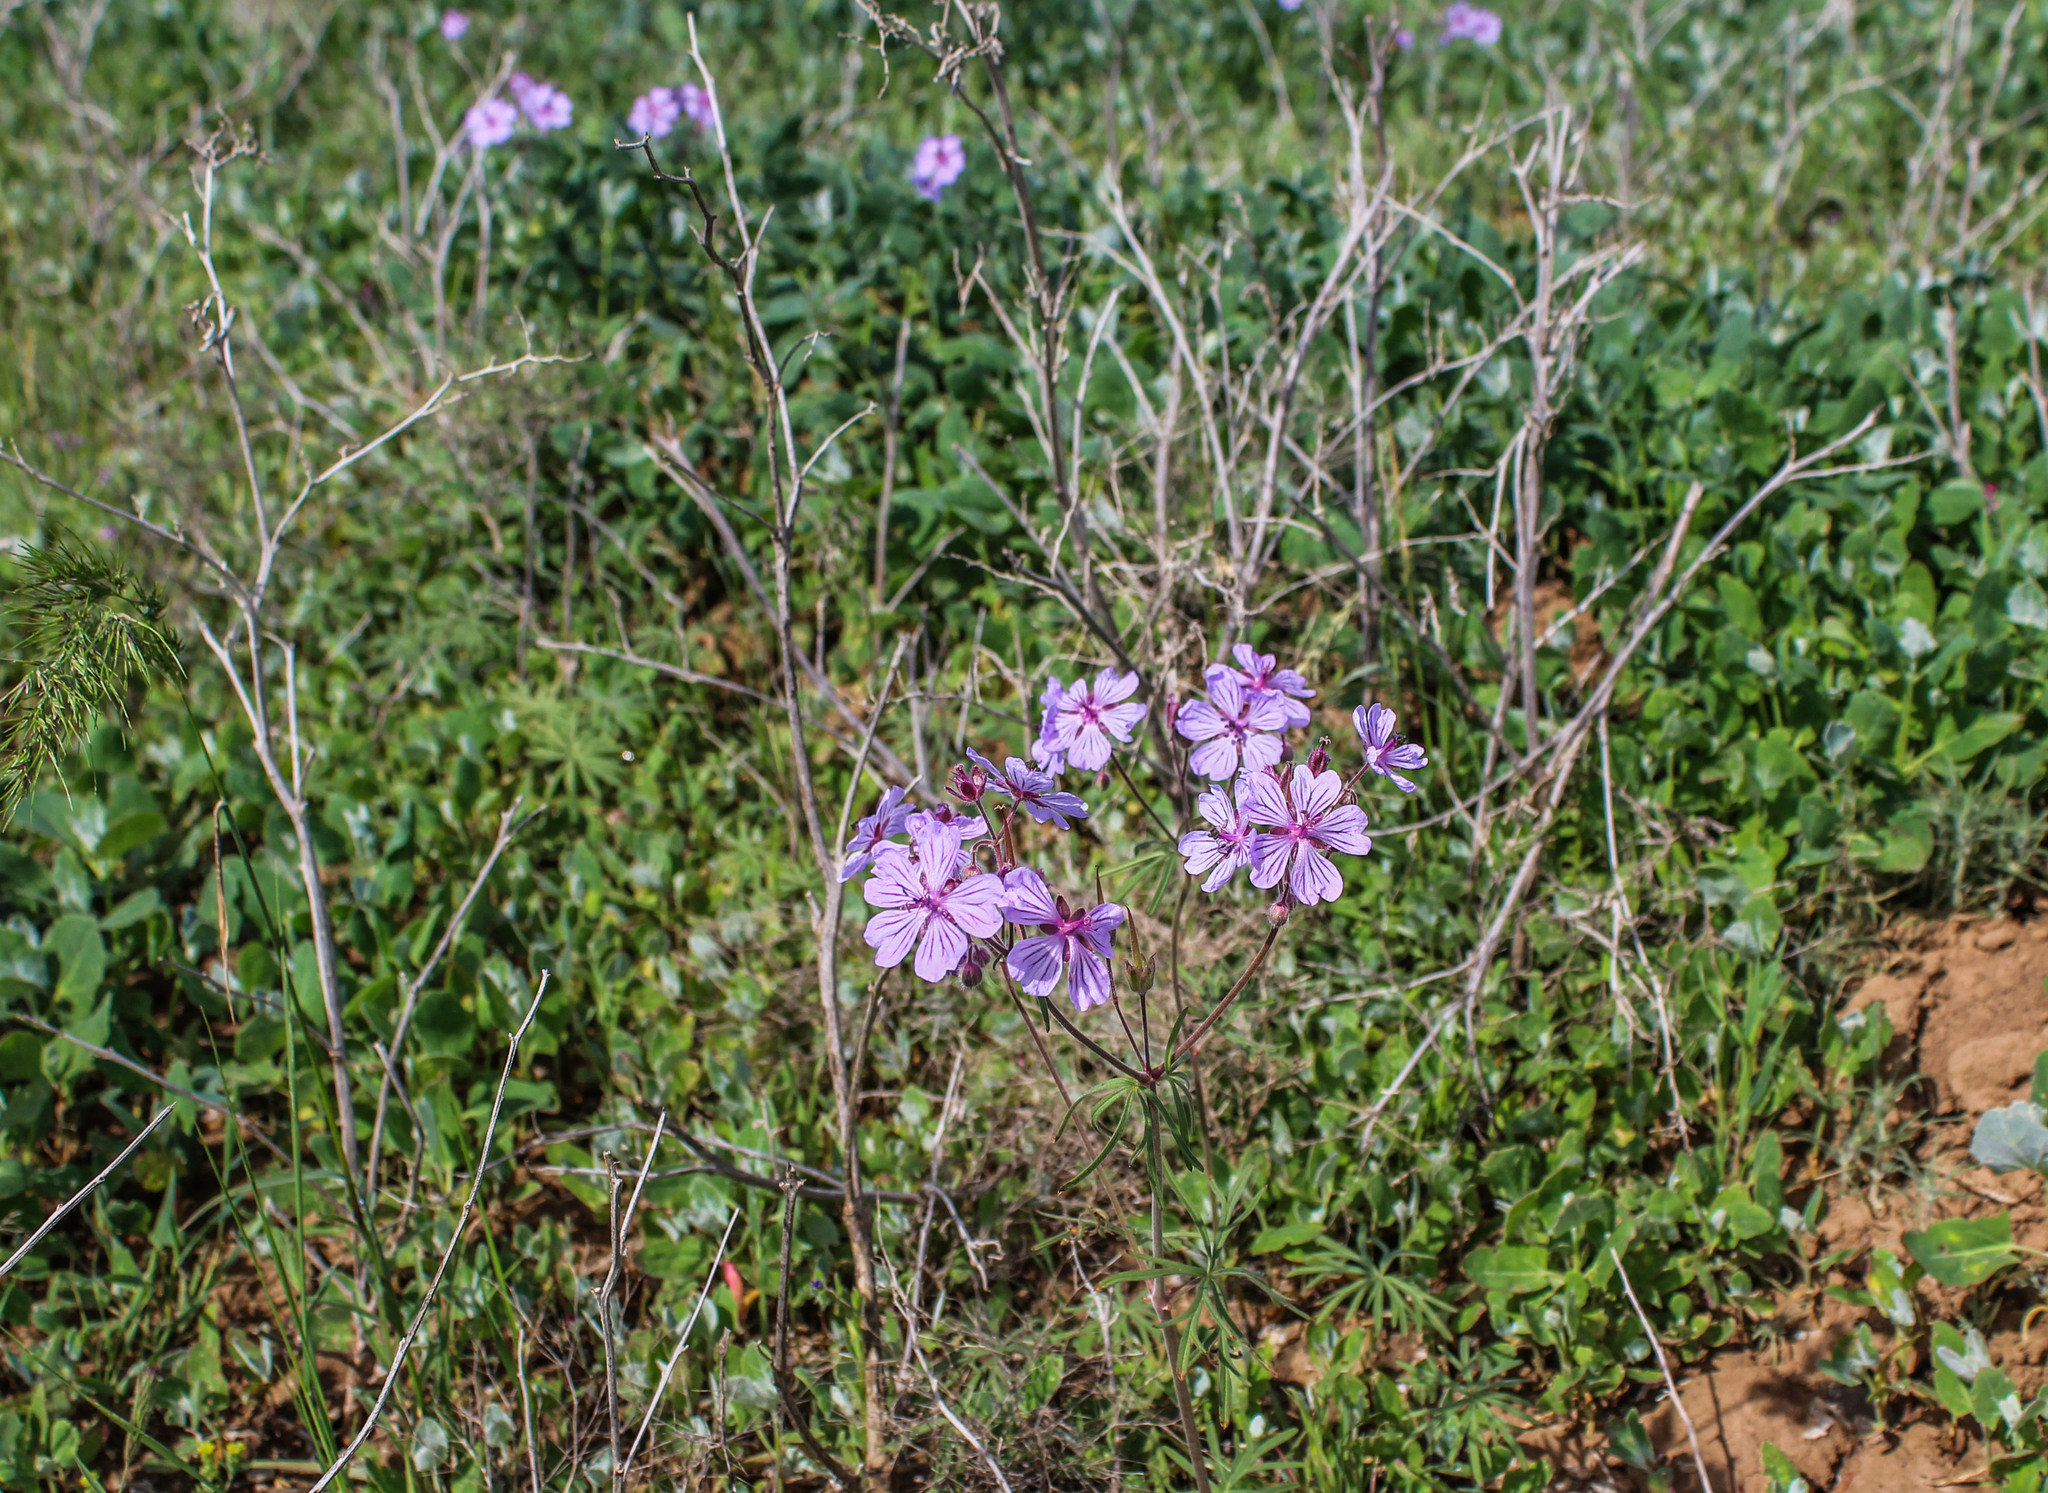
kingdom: Plantae
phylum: Tracheophyta
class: Magnoliopsida
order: Geraniales
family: Geraniaceae
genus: Geranium
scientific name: Geranium linearilobum
